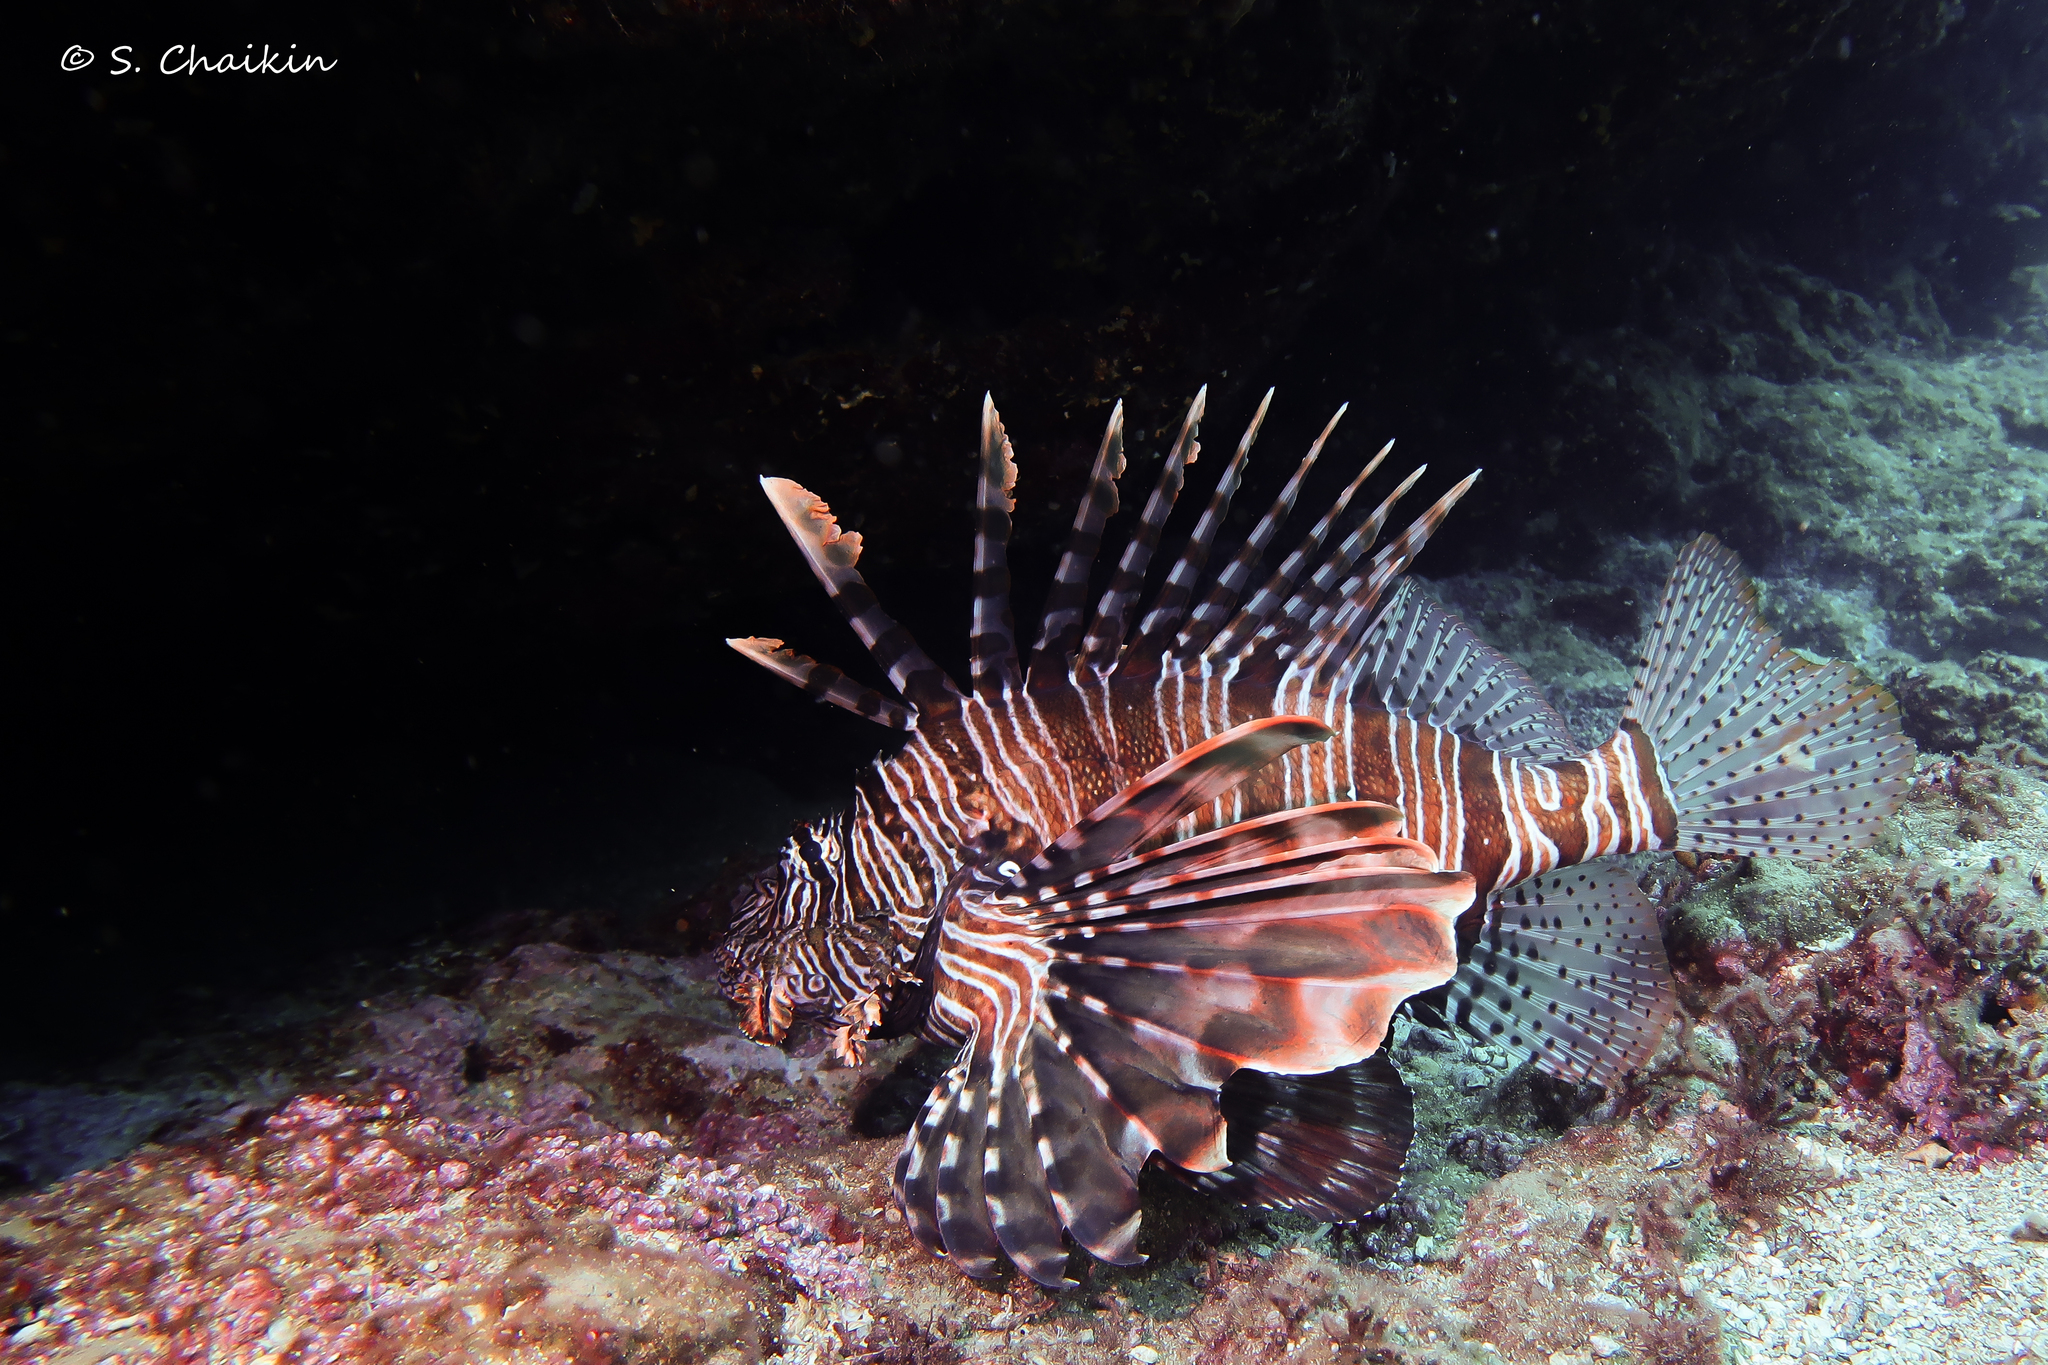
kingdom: Animalia
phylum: Chordata
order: Scorpaeniformes
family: Scorpaenidae
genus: Pterois
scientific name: Pterois miles
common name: Devil firefish
